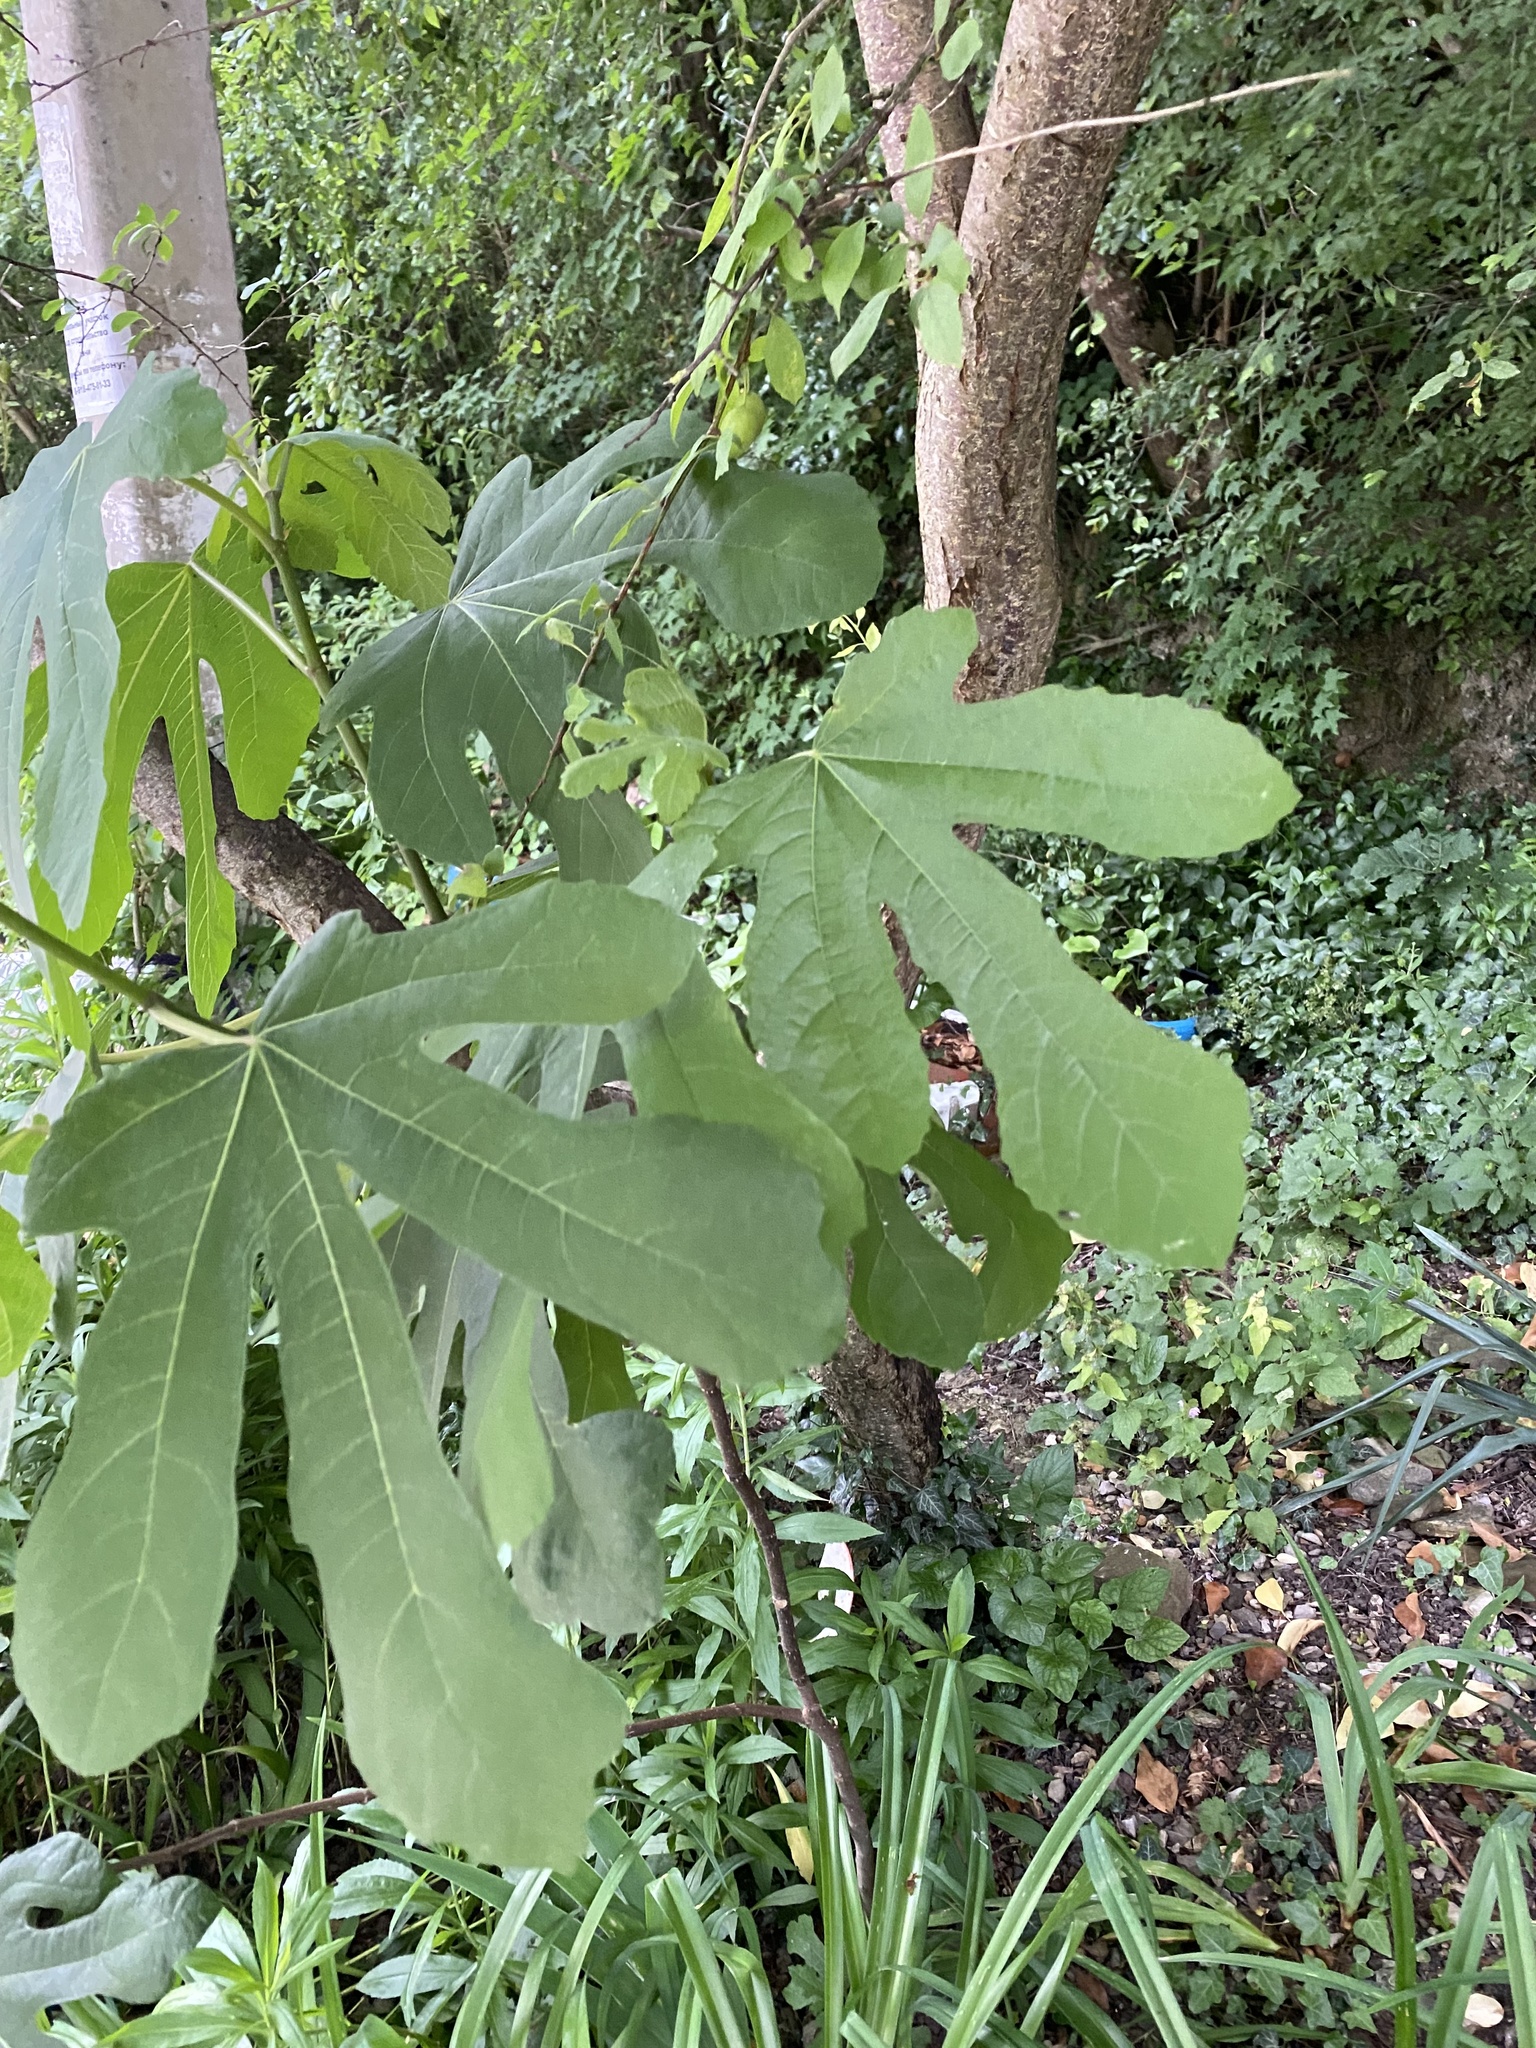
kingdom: Plantae
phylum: Tracheophyta
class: Magnoliopsida
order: Rosales
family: Moraceae
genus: Ficus
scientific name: Ficus carica
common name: Fig
